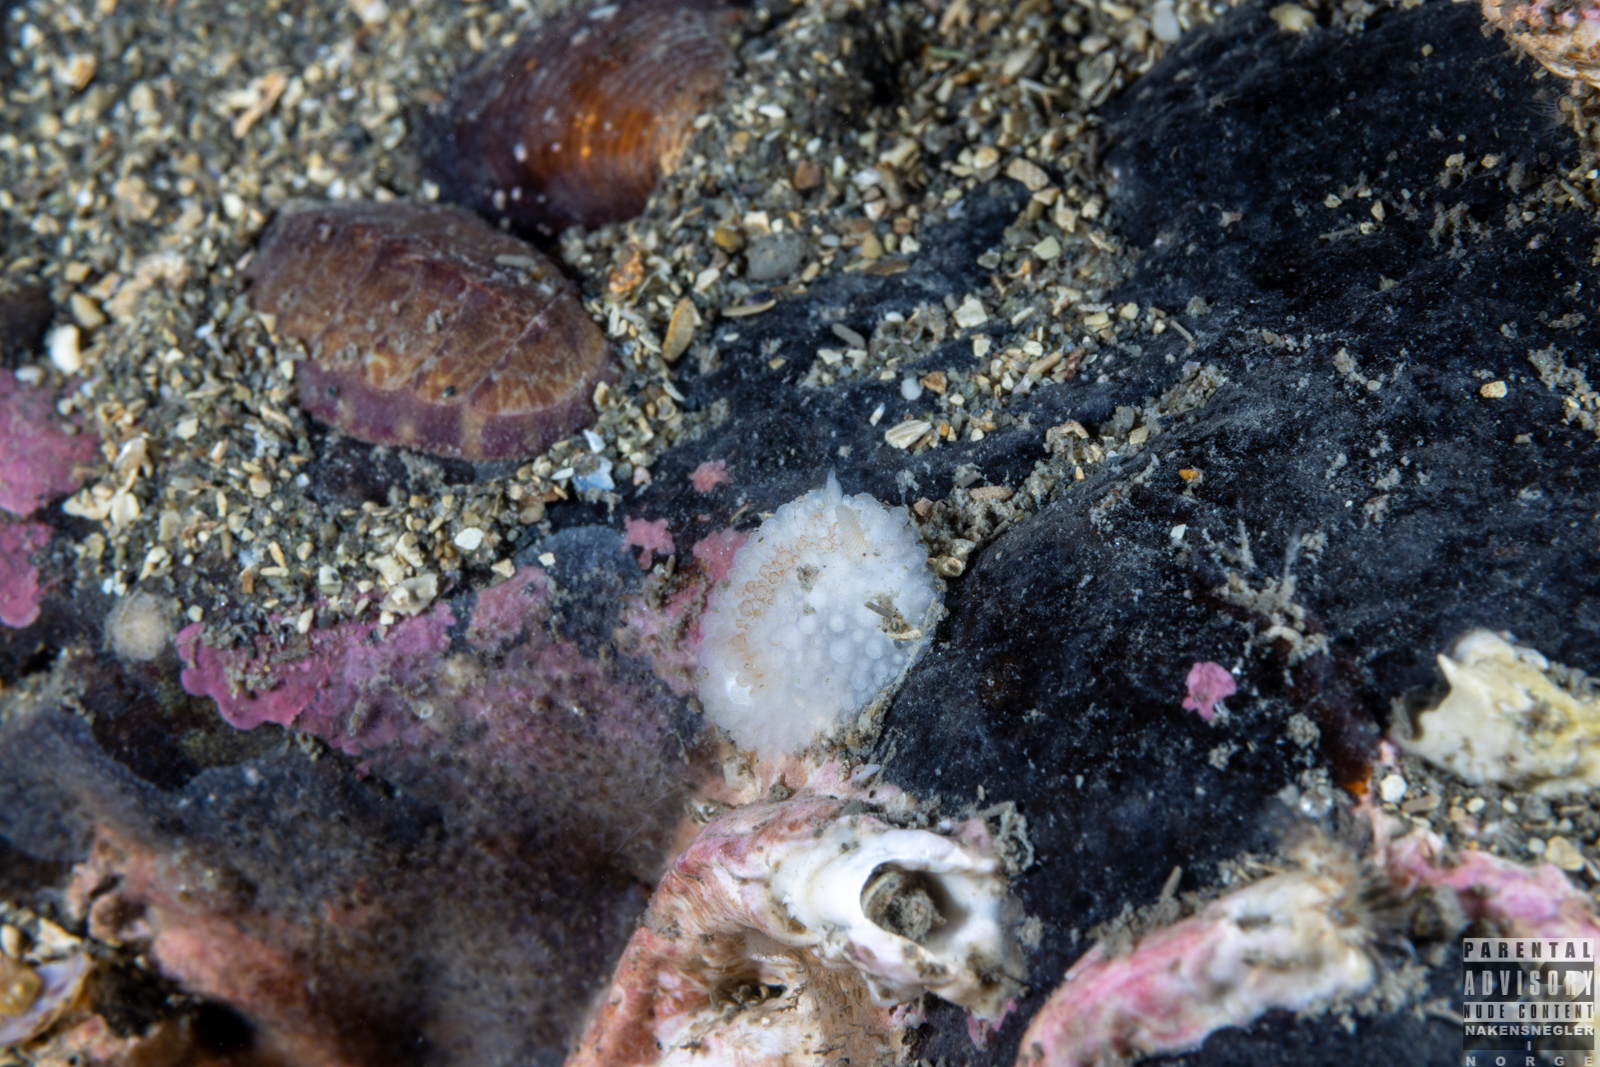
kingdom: Animalia
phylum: Mollusca
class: Gastropoda
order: Nudibranchia
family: Onchidorididae
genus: Onchidoris
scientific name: Onchidoris bilamellata
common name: Barnacle-eating onchidoris
